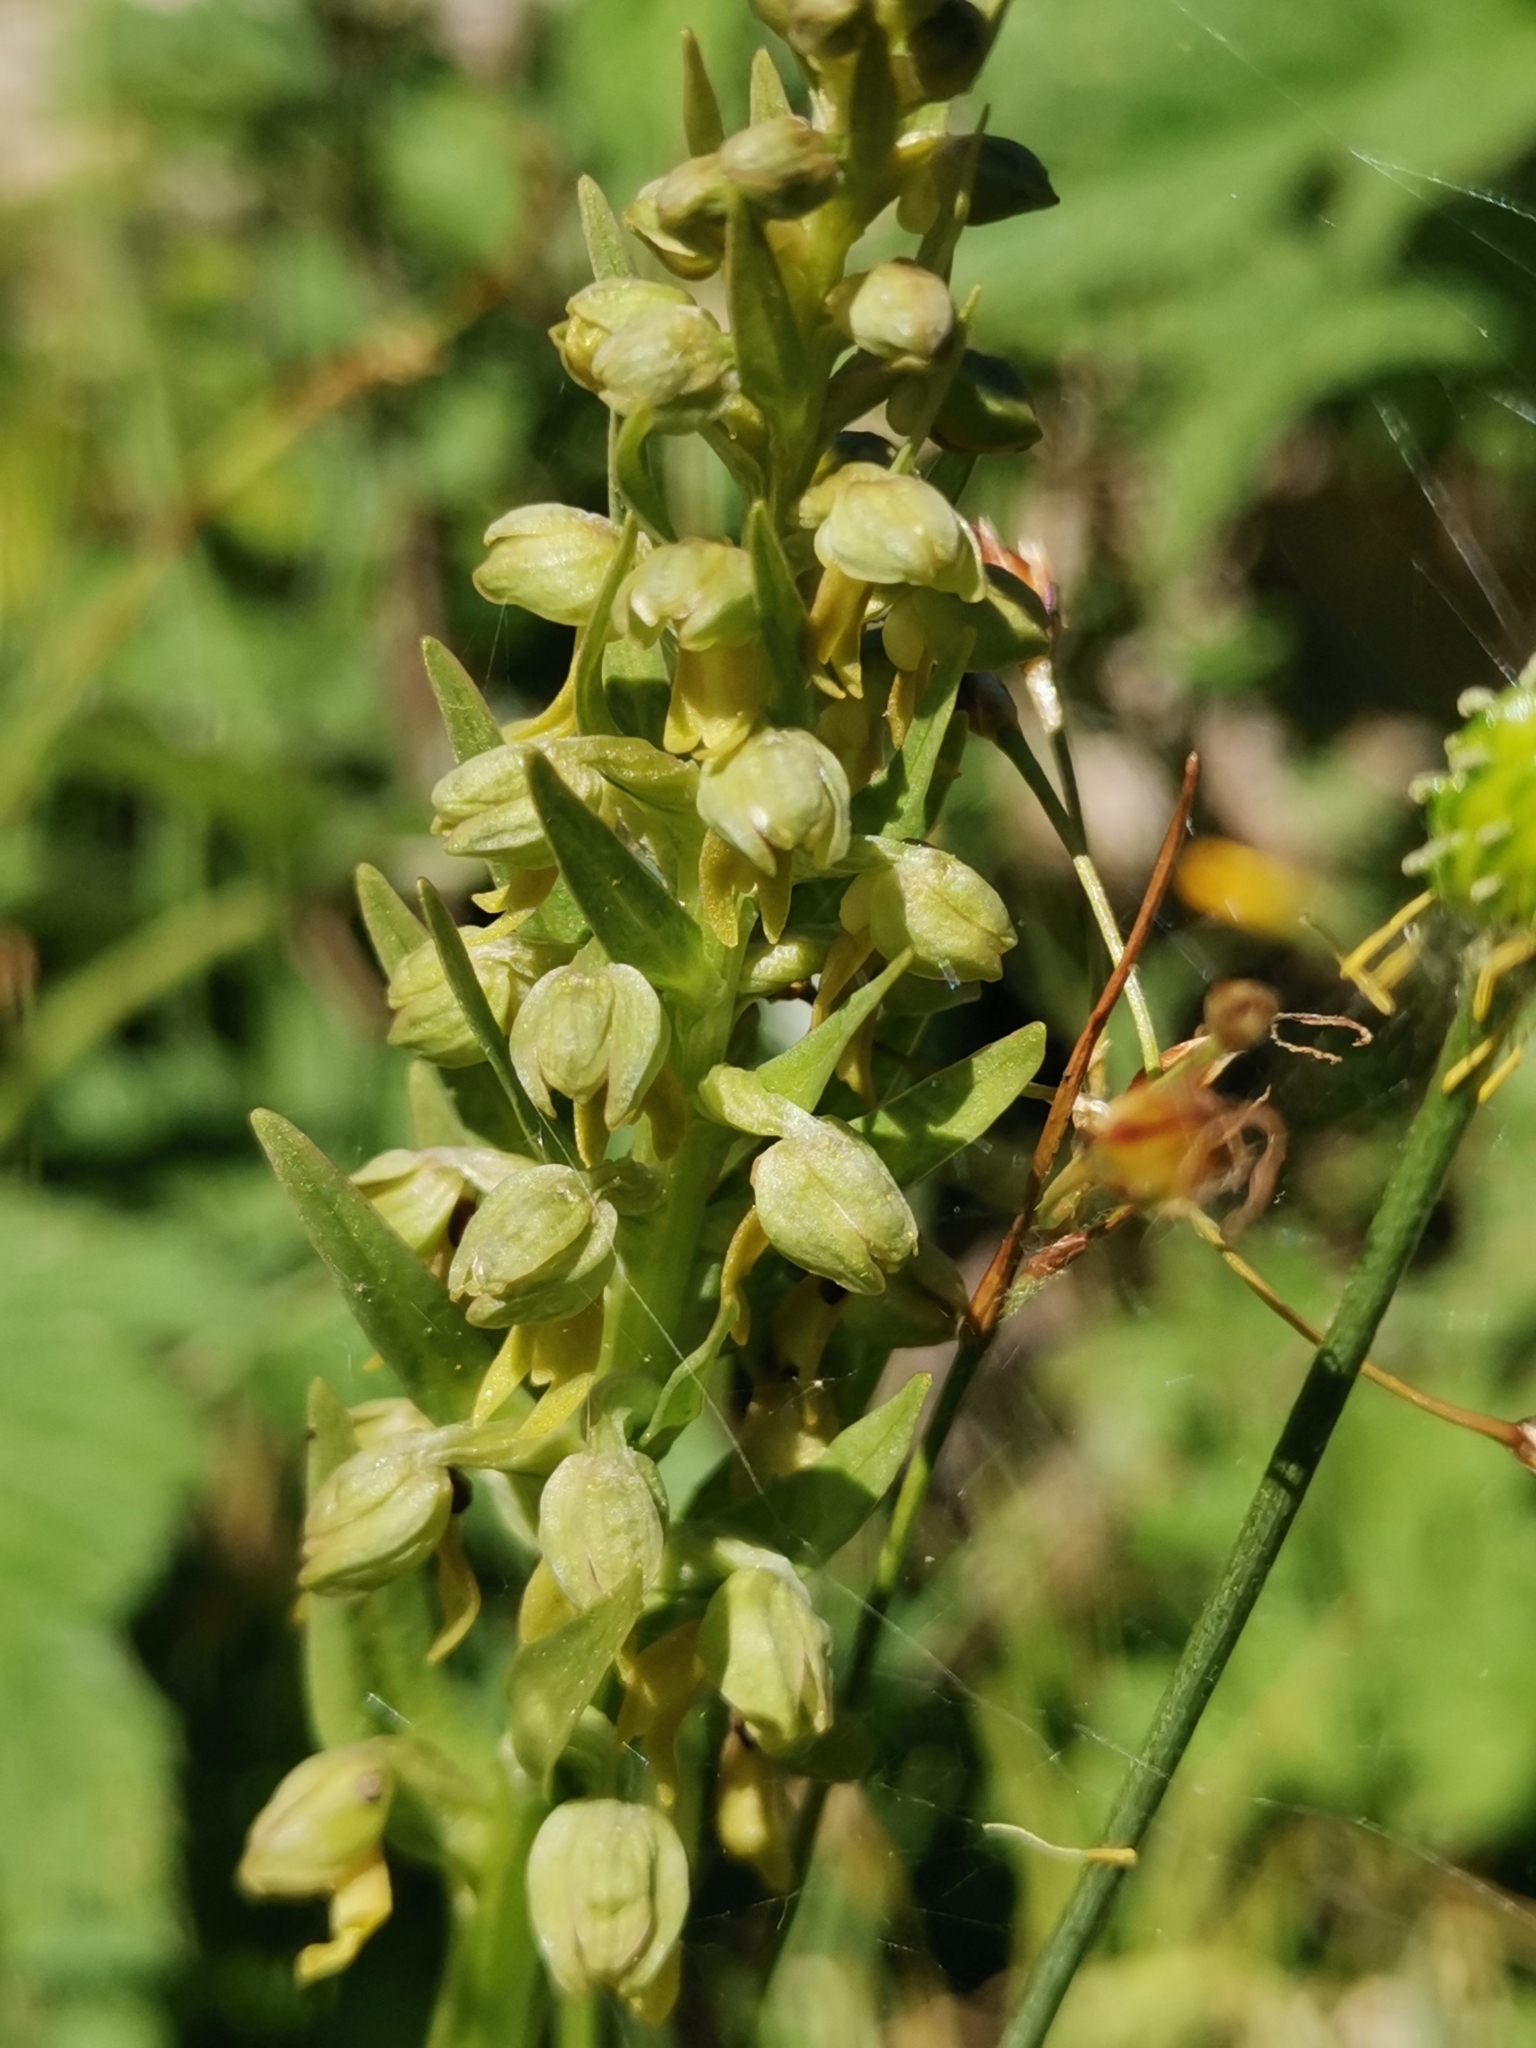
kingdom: Plantae
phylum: Tracheophyta
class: Liliopsida
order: Asparagales
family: Orchidaceae
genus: Dactylorhiza
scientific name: Dactylorhiza viridis
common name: Longbract frog orchid
